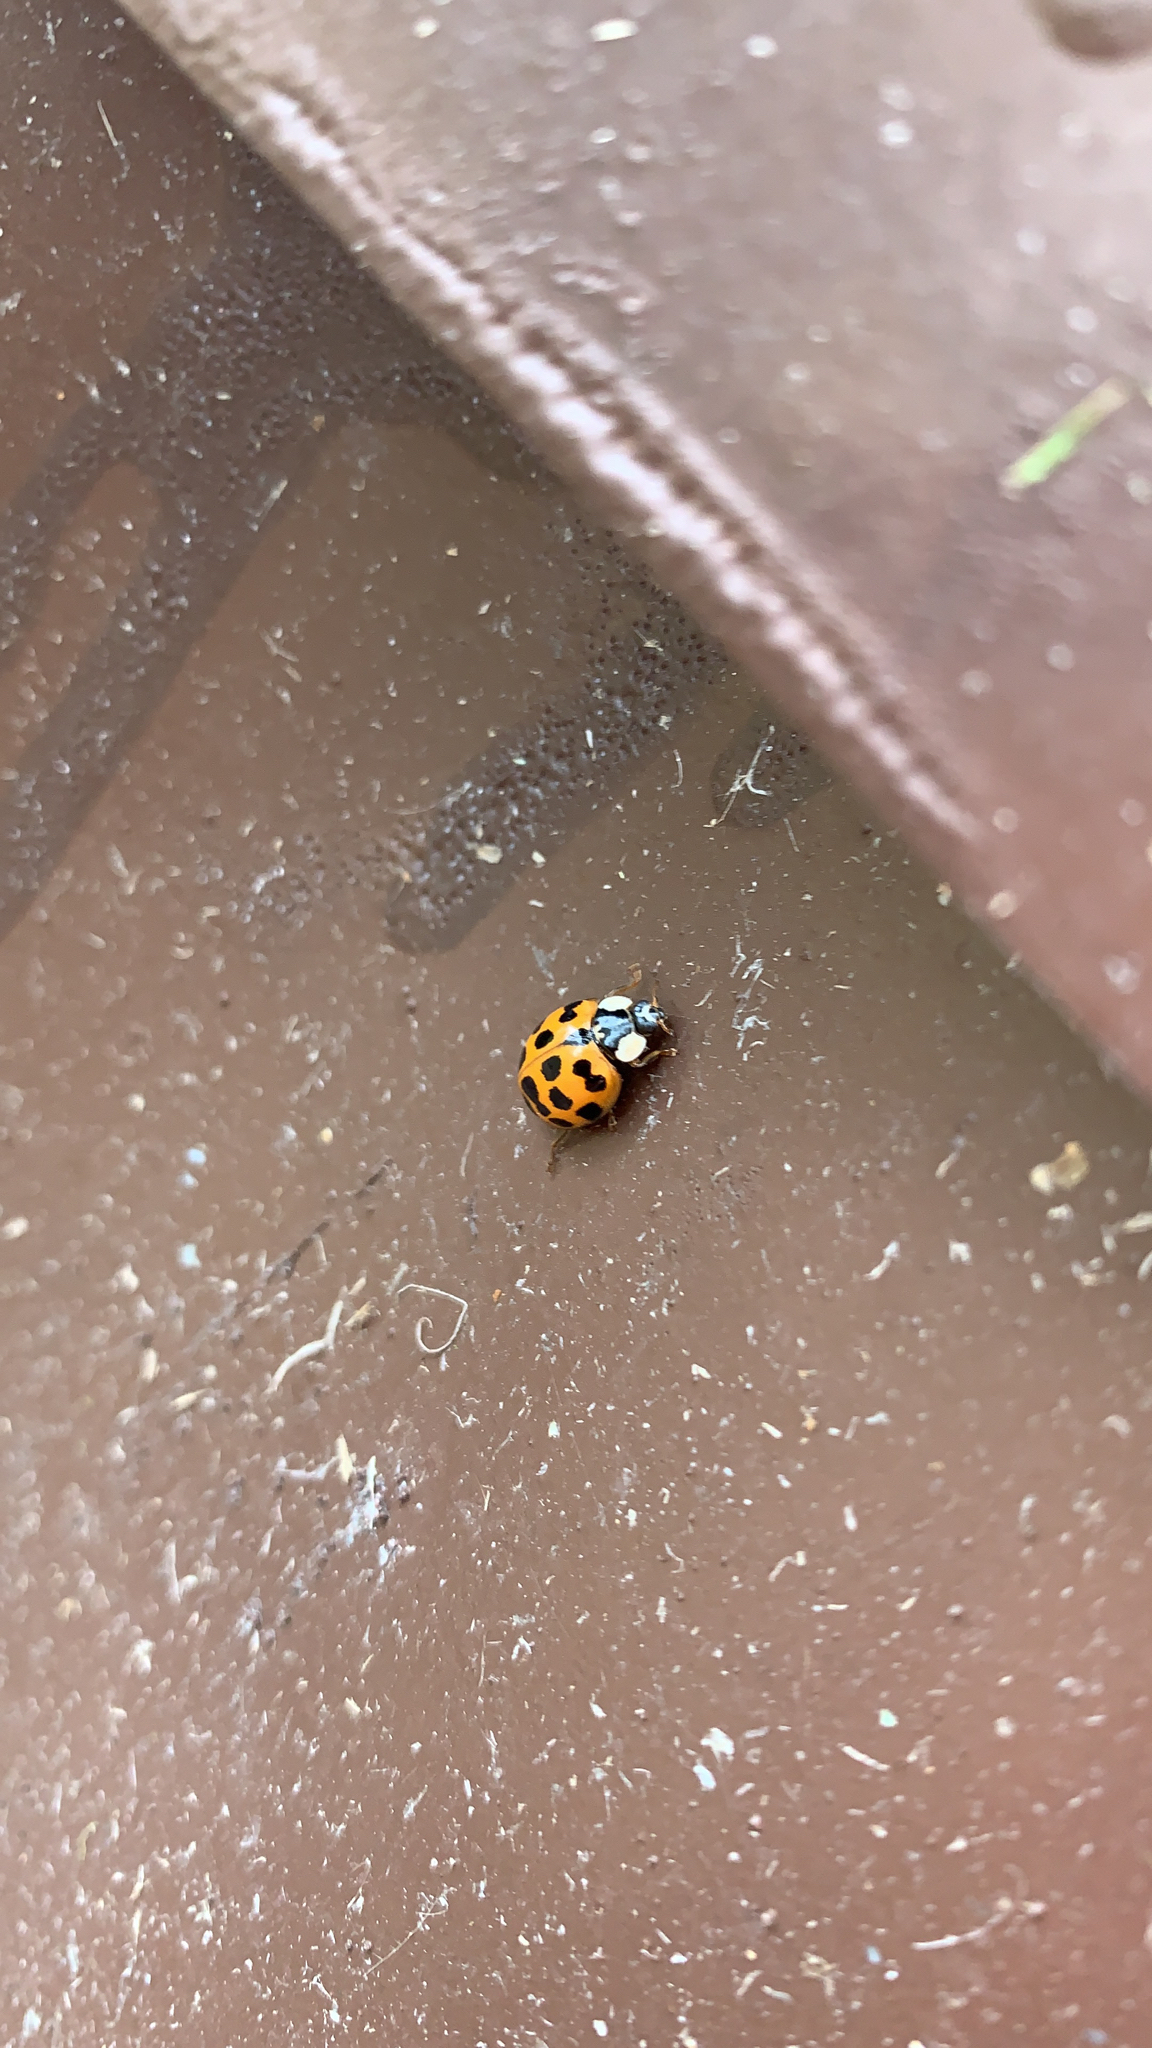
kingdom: Animalia
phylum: Arthropoda
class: Insecta
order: Coleoptera
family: Coccinellidae
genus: Harmonia
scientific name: Harmonia axyridis
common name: Harlequin ladybird
